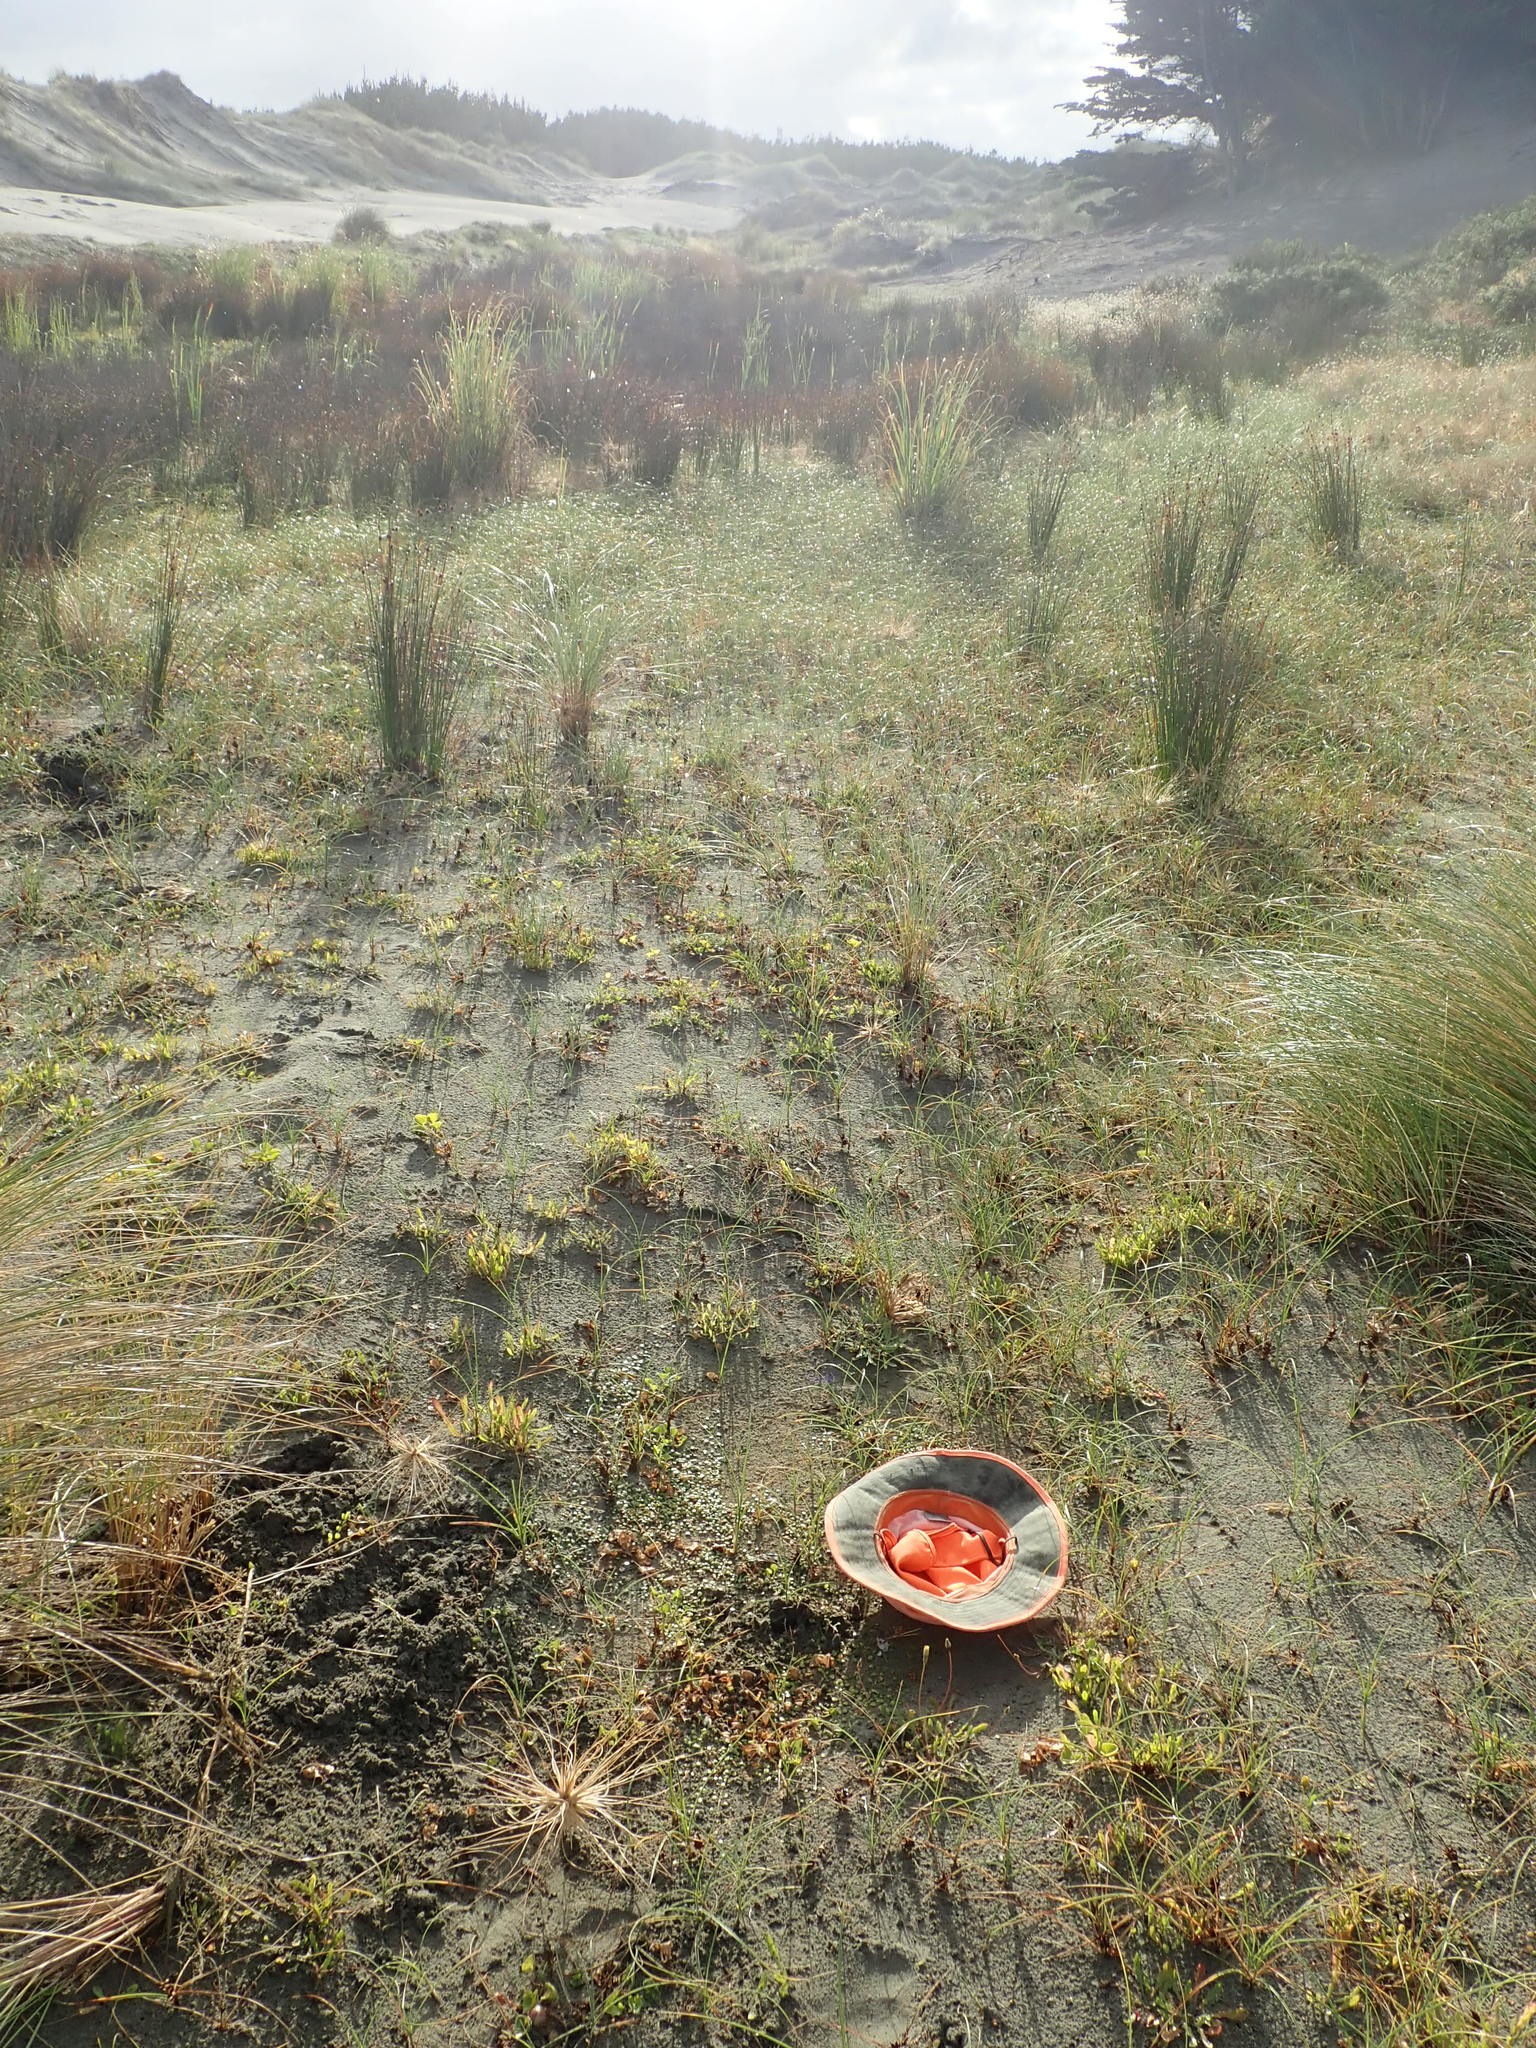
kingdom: Plantae
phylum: Tracheophyta
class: Magnoliopsida
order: Asterales
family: Goodeniaceae
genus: Goodenia
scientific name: Goodenia heenanii
